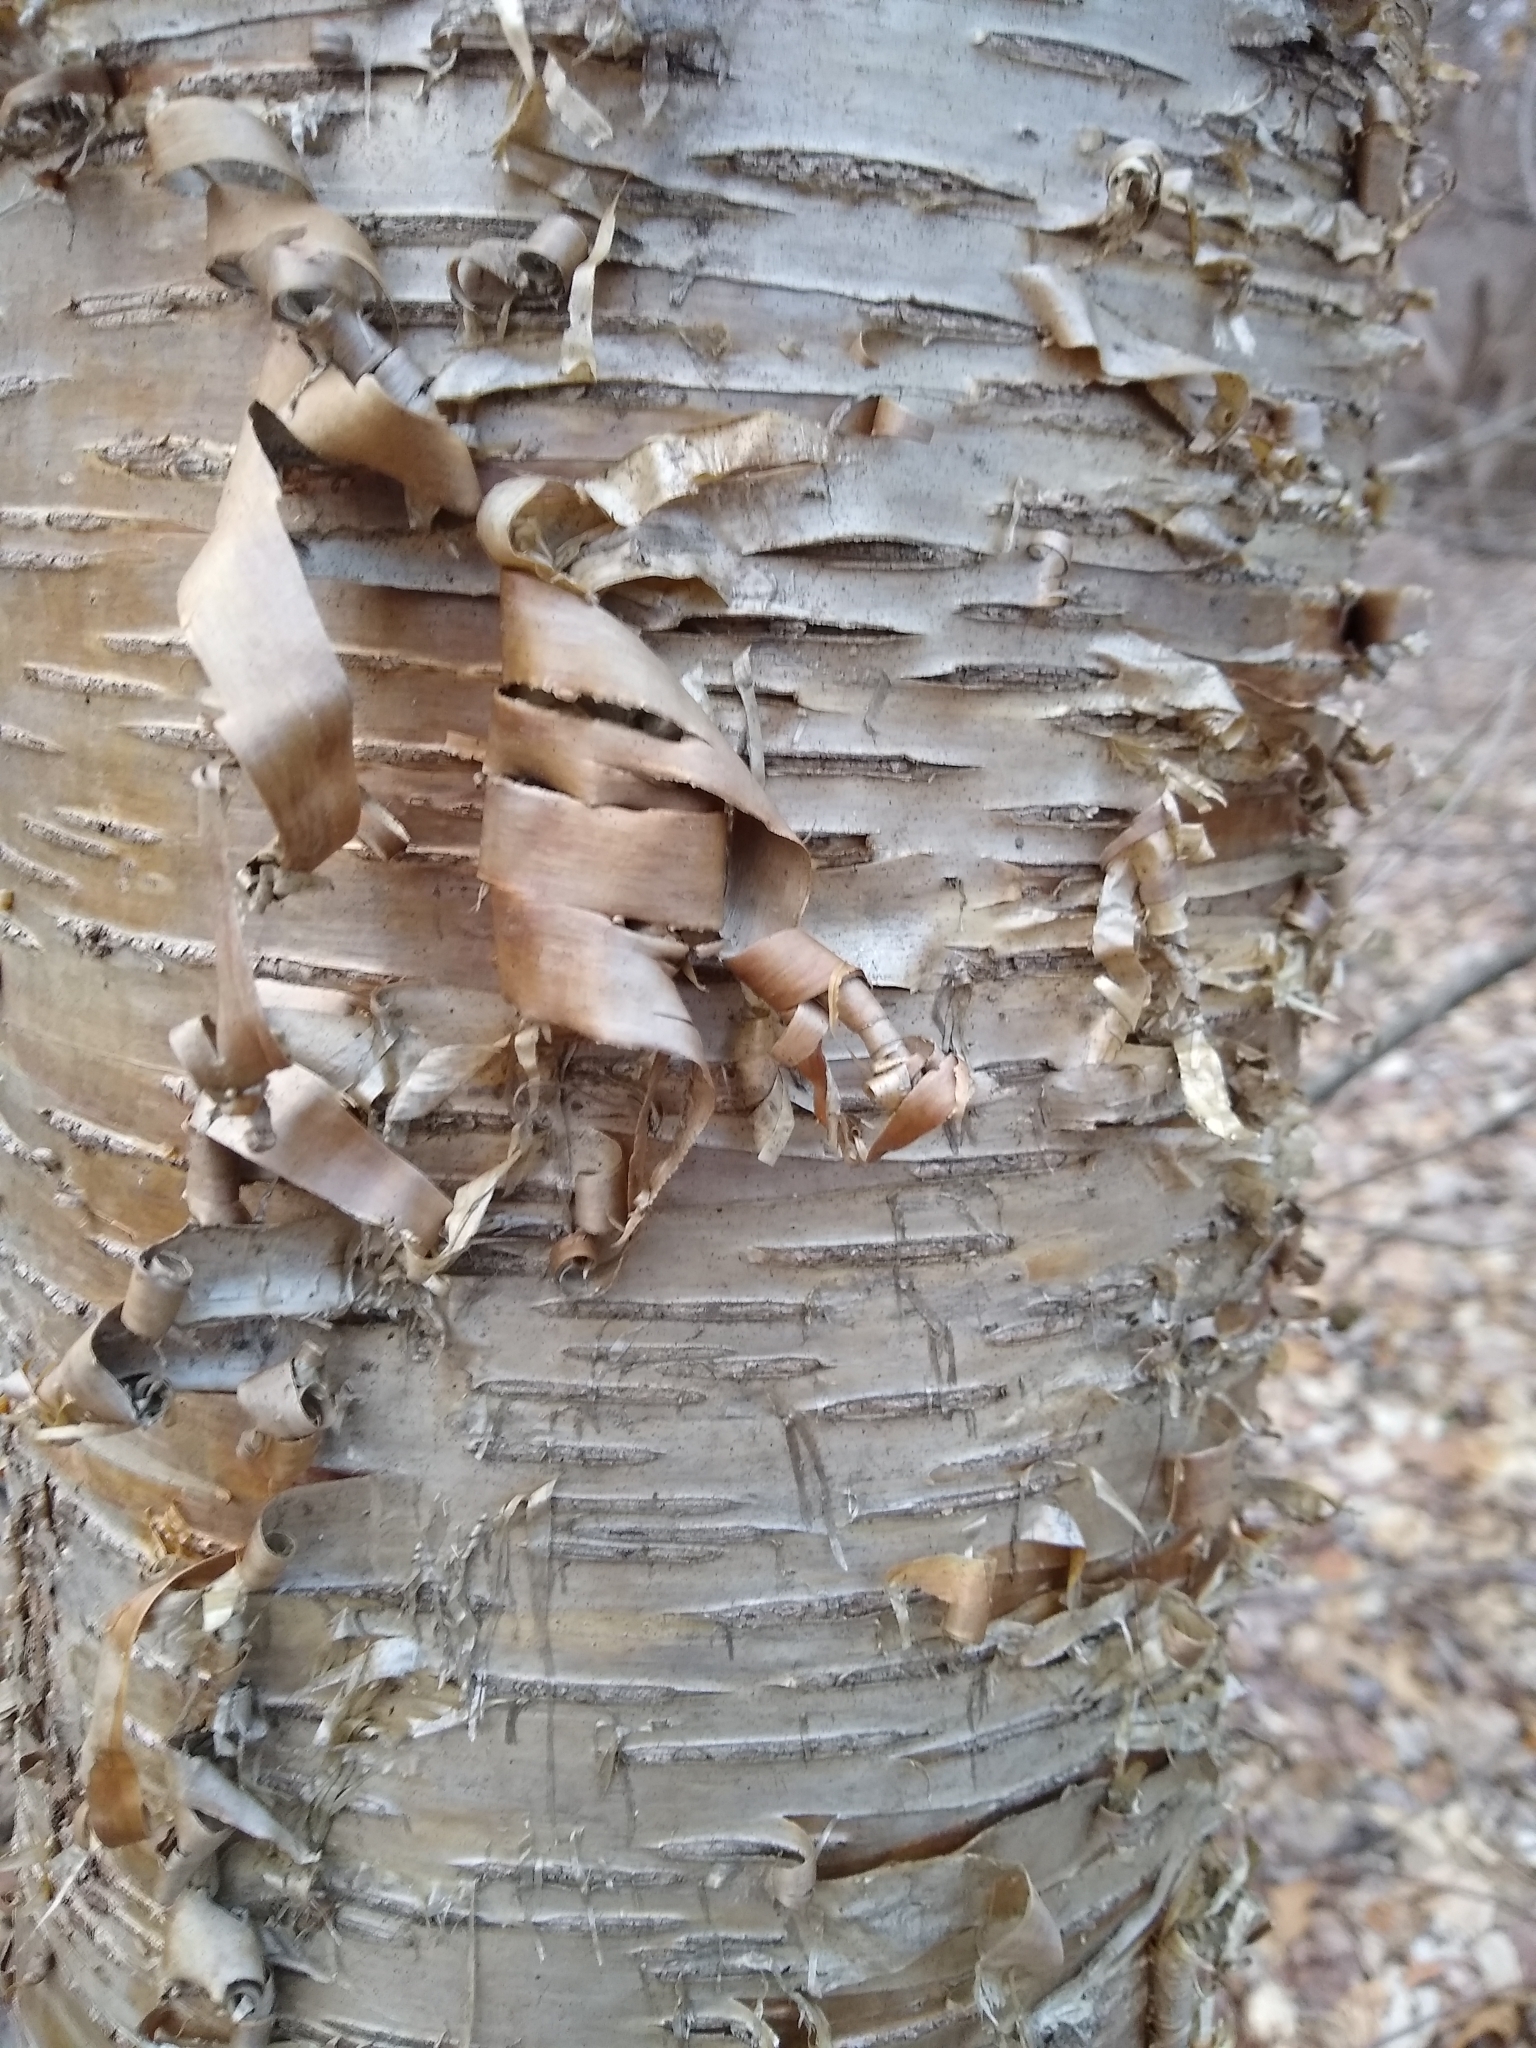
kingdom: Plantae
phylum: Tracheophyta
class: Magnoliopsida
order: Fagales
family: Betulaceae
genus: Betula
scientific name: Betula alleghaniensis
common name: Yellow birch
